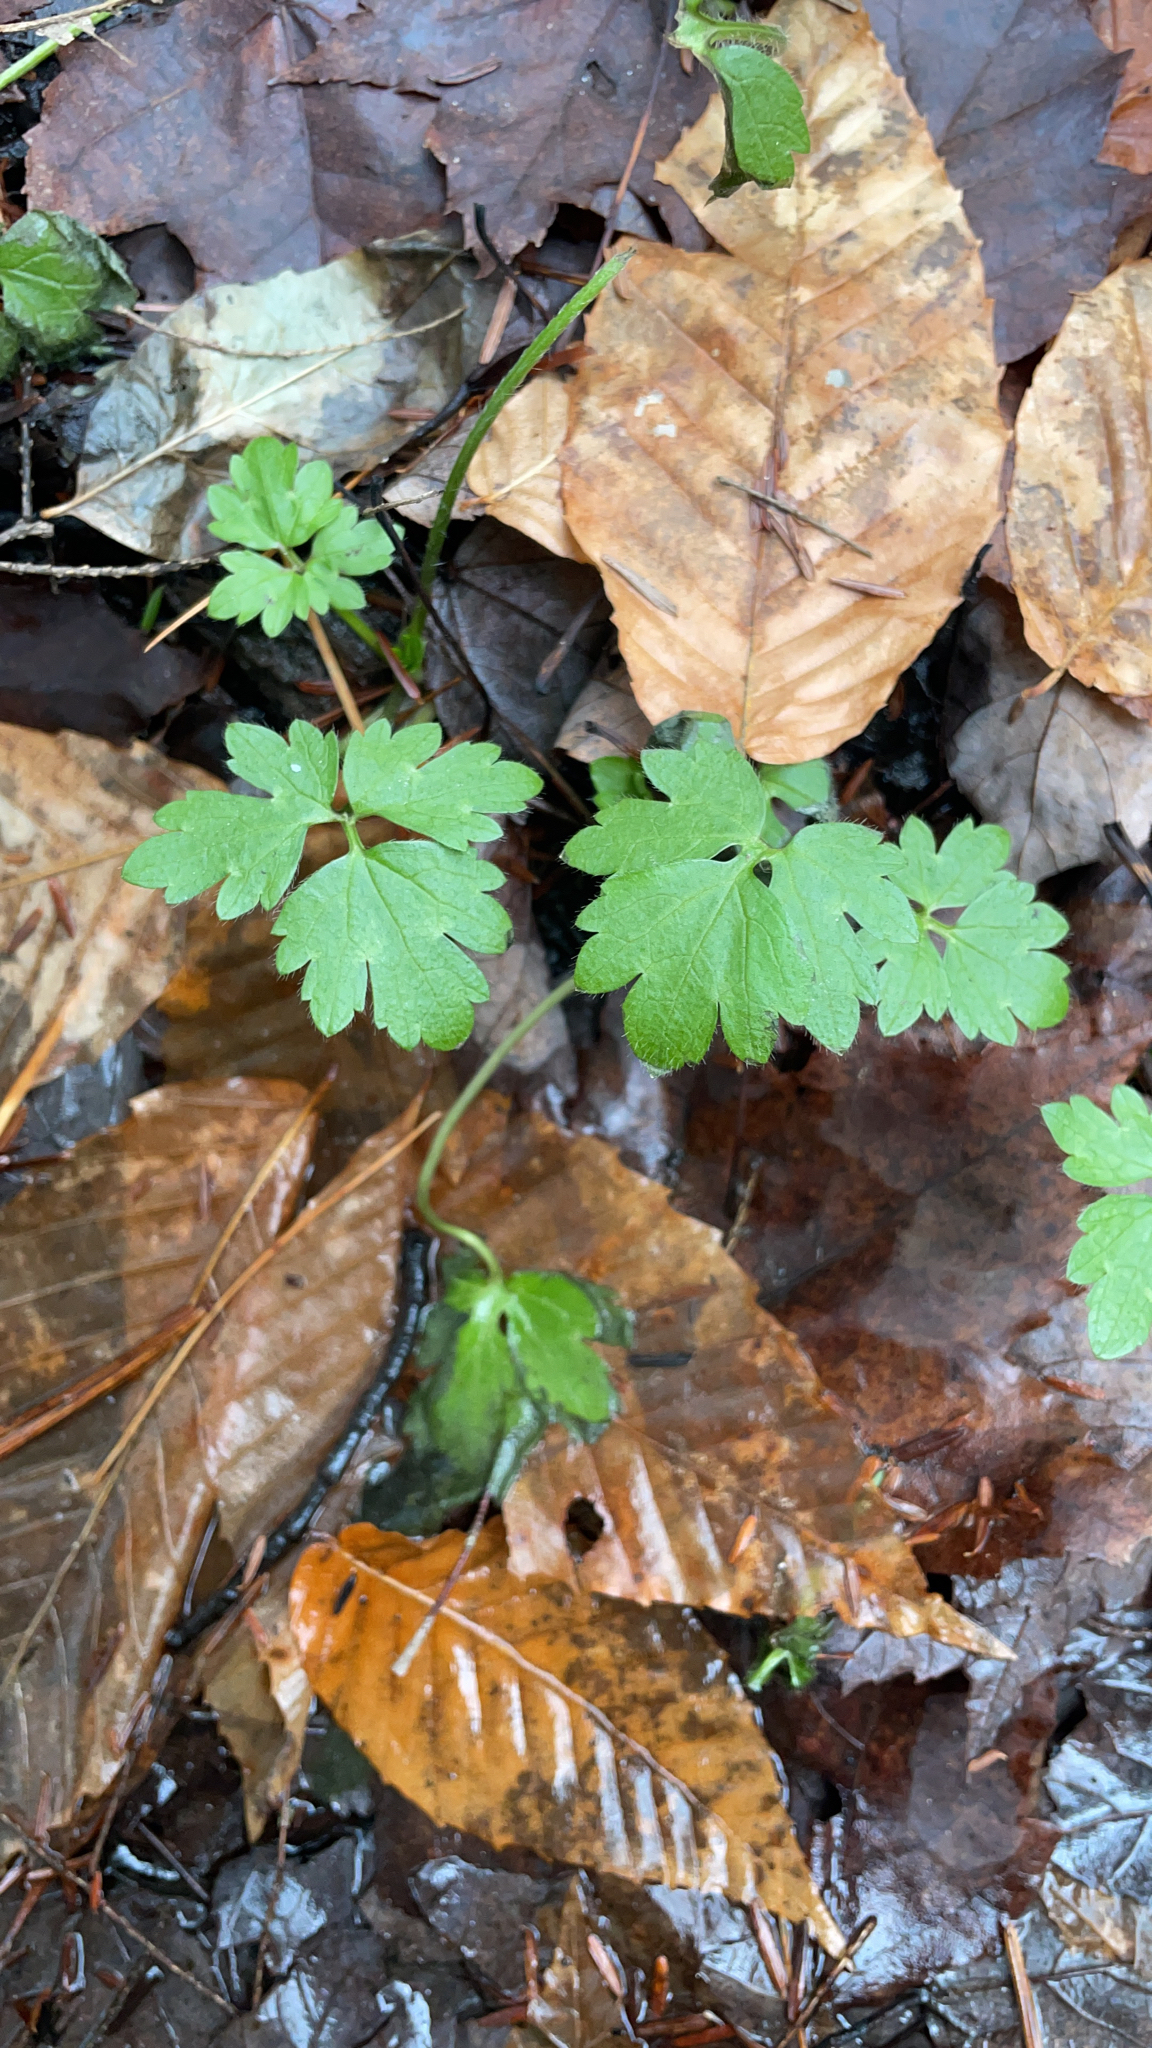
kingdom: Plantae
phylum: Tracheophyta
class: Magnoliopsida
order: Ranunculales
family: Ranunculaceae
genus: Ranunculus
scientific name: Ranunculus repens
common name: Creeping buttercup
